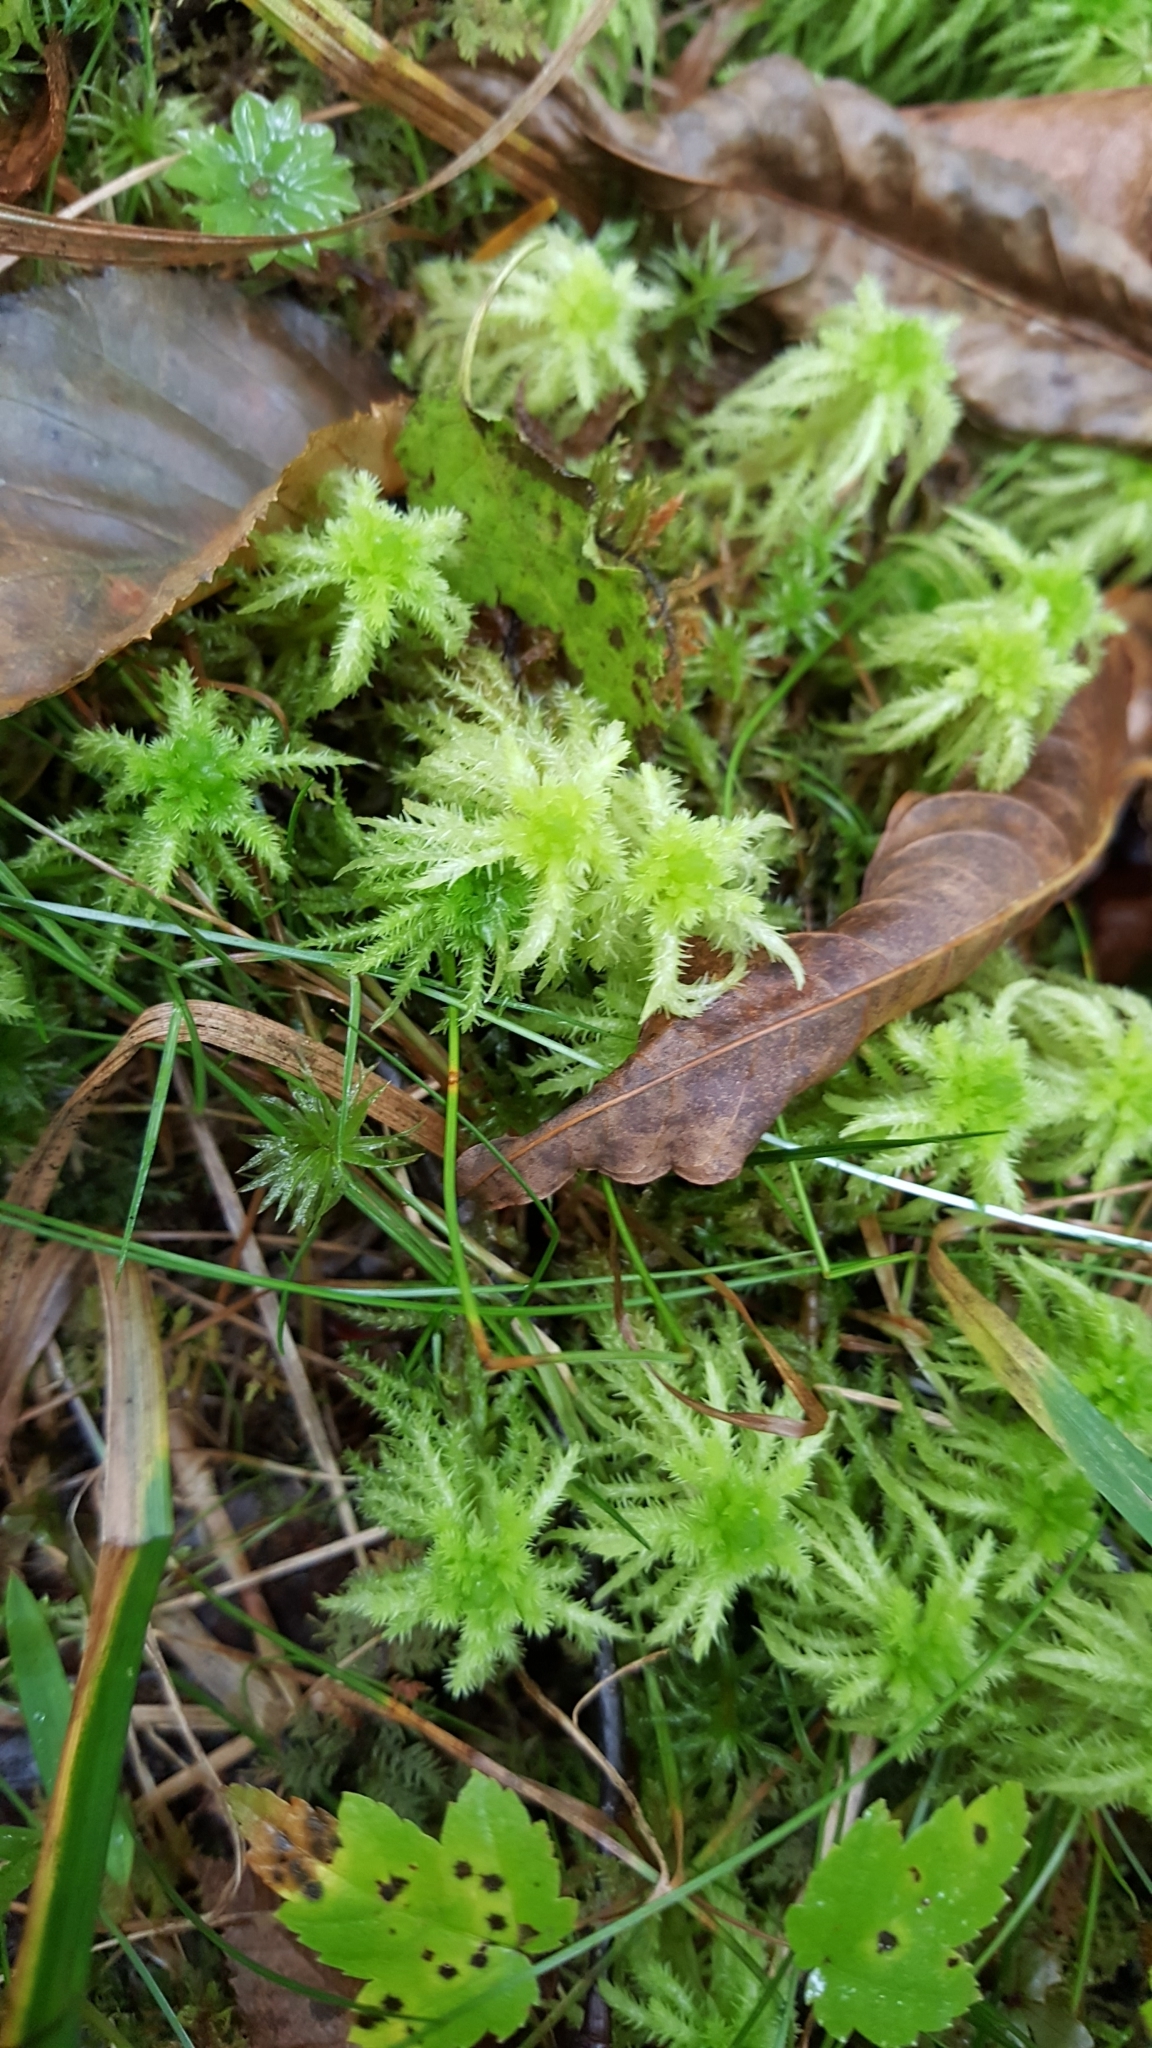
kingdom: Plantae
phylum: Bryophyta
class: Sphagnopsida
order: Sphagnales
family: Sphagnaceae
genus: Sphagnum
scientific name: Sphagnum squarrosum
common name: Shaggy peat moss
